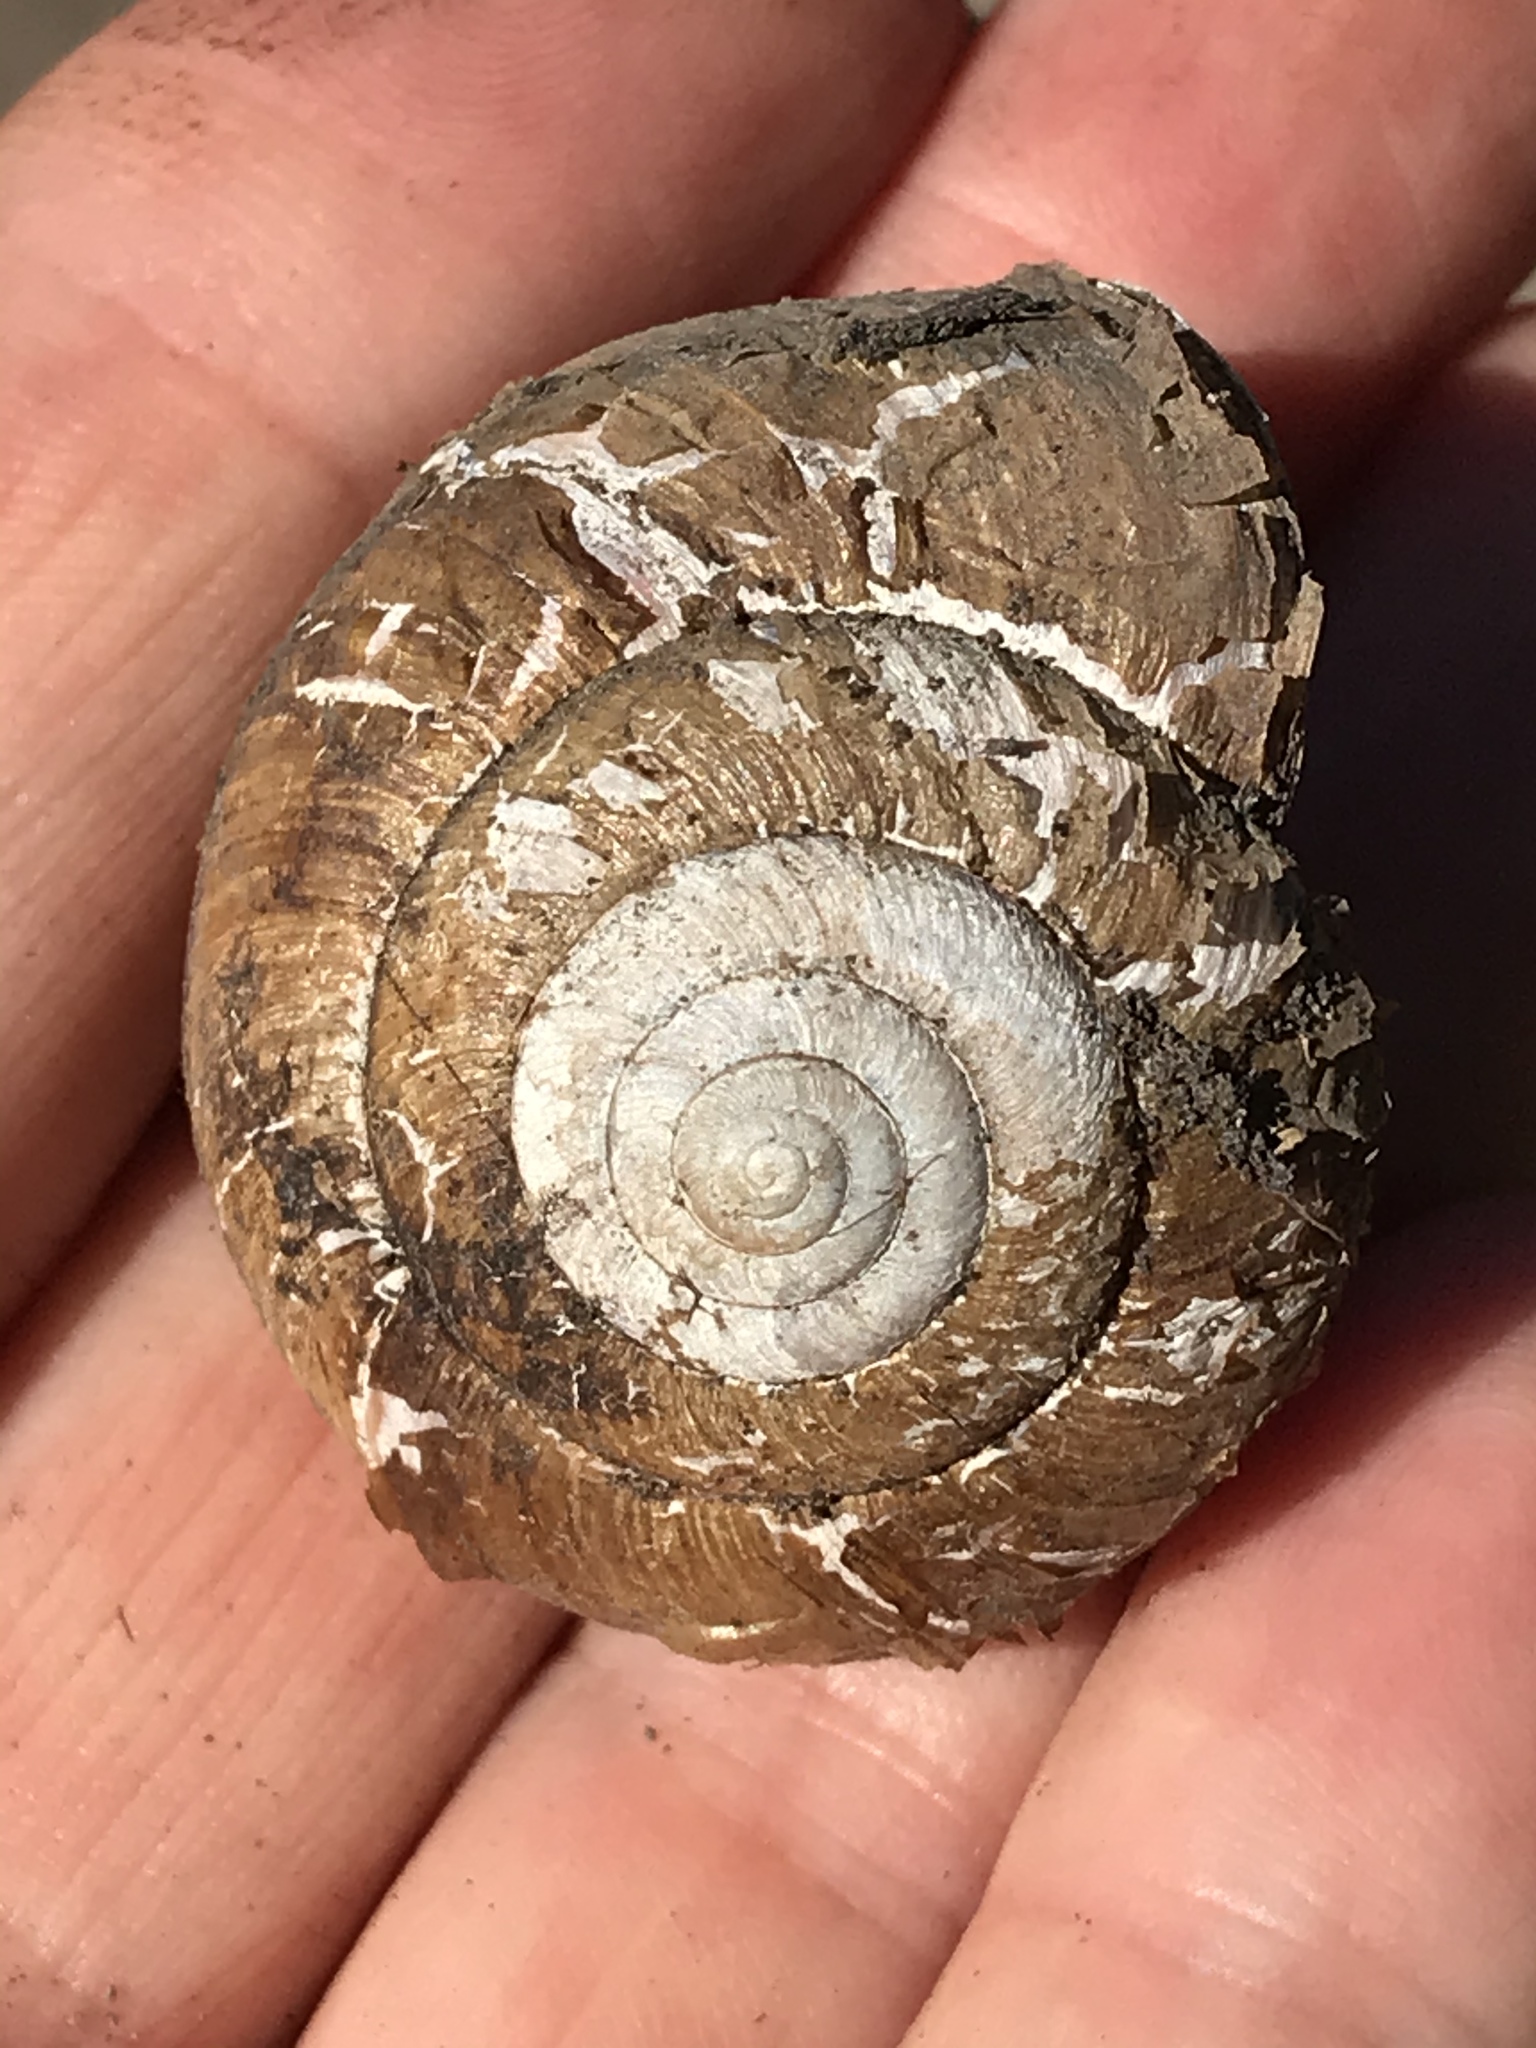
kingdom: Animalia
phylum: Mollusca
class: Gastropoda
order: Stylommatophora
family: Xanthonychidae
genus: Helminthoglypta
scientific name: Helminthoglypta arrosa
